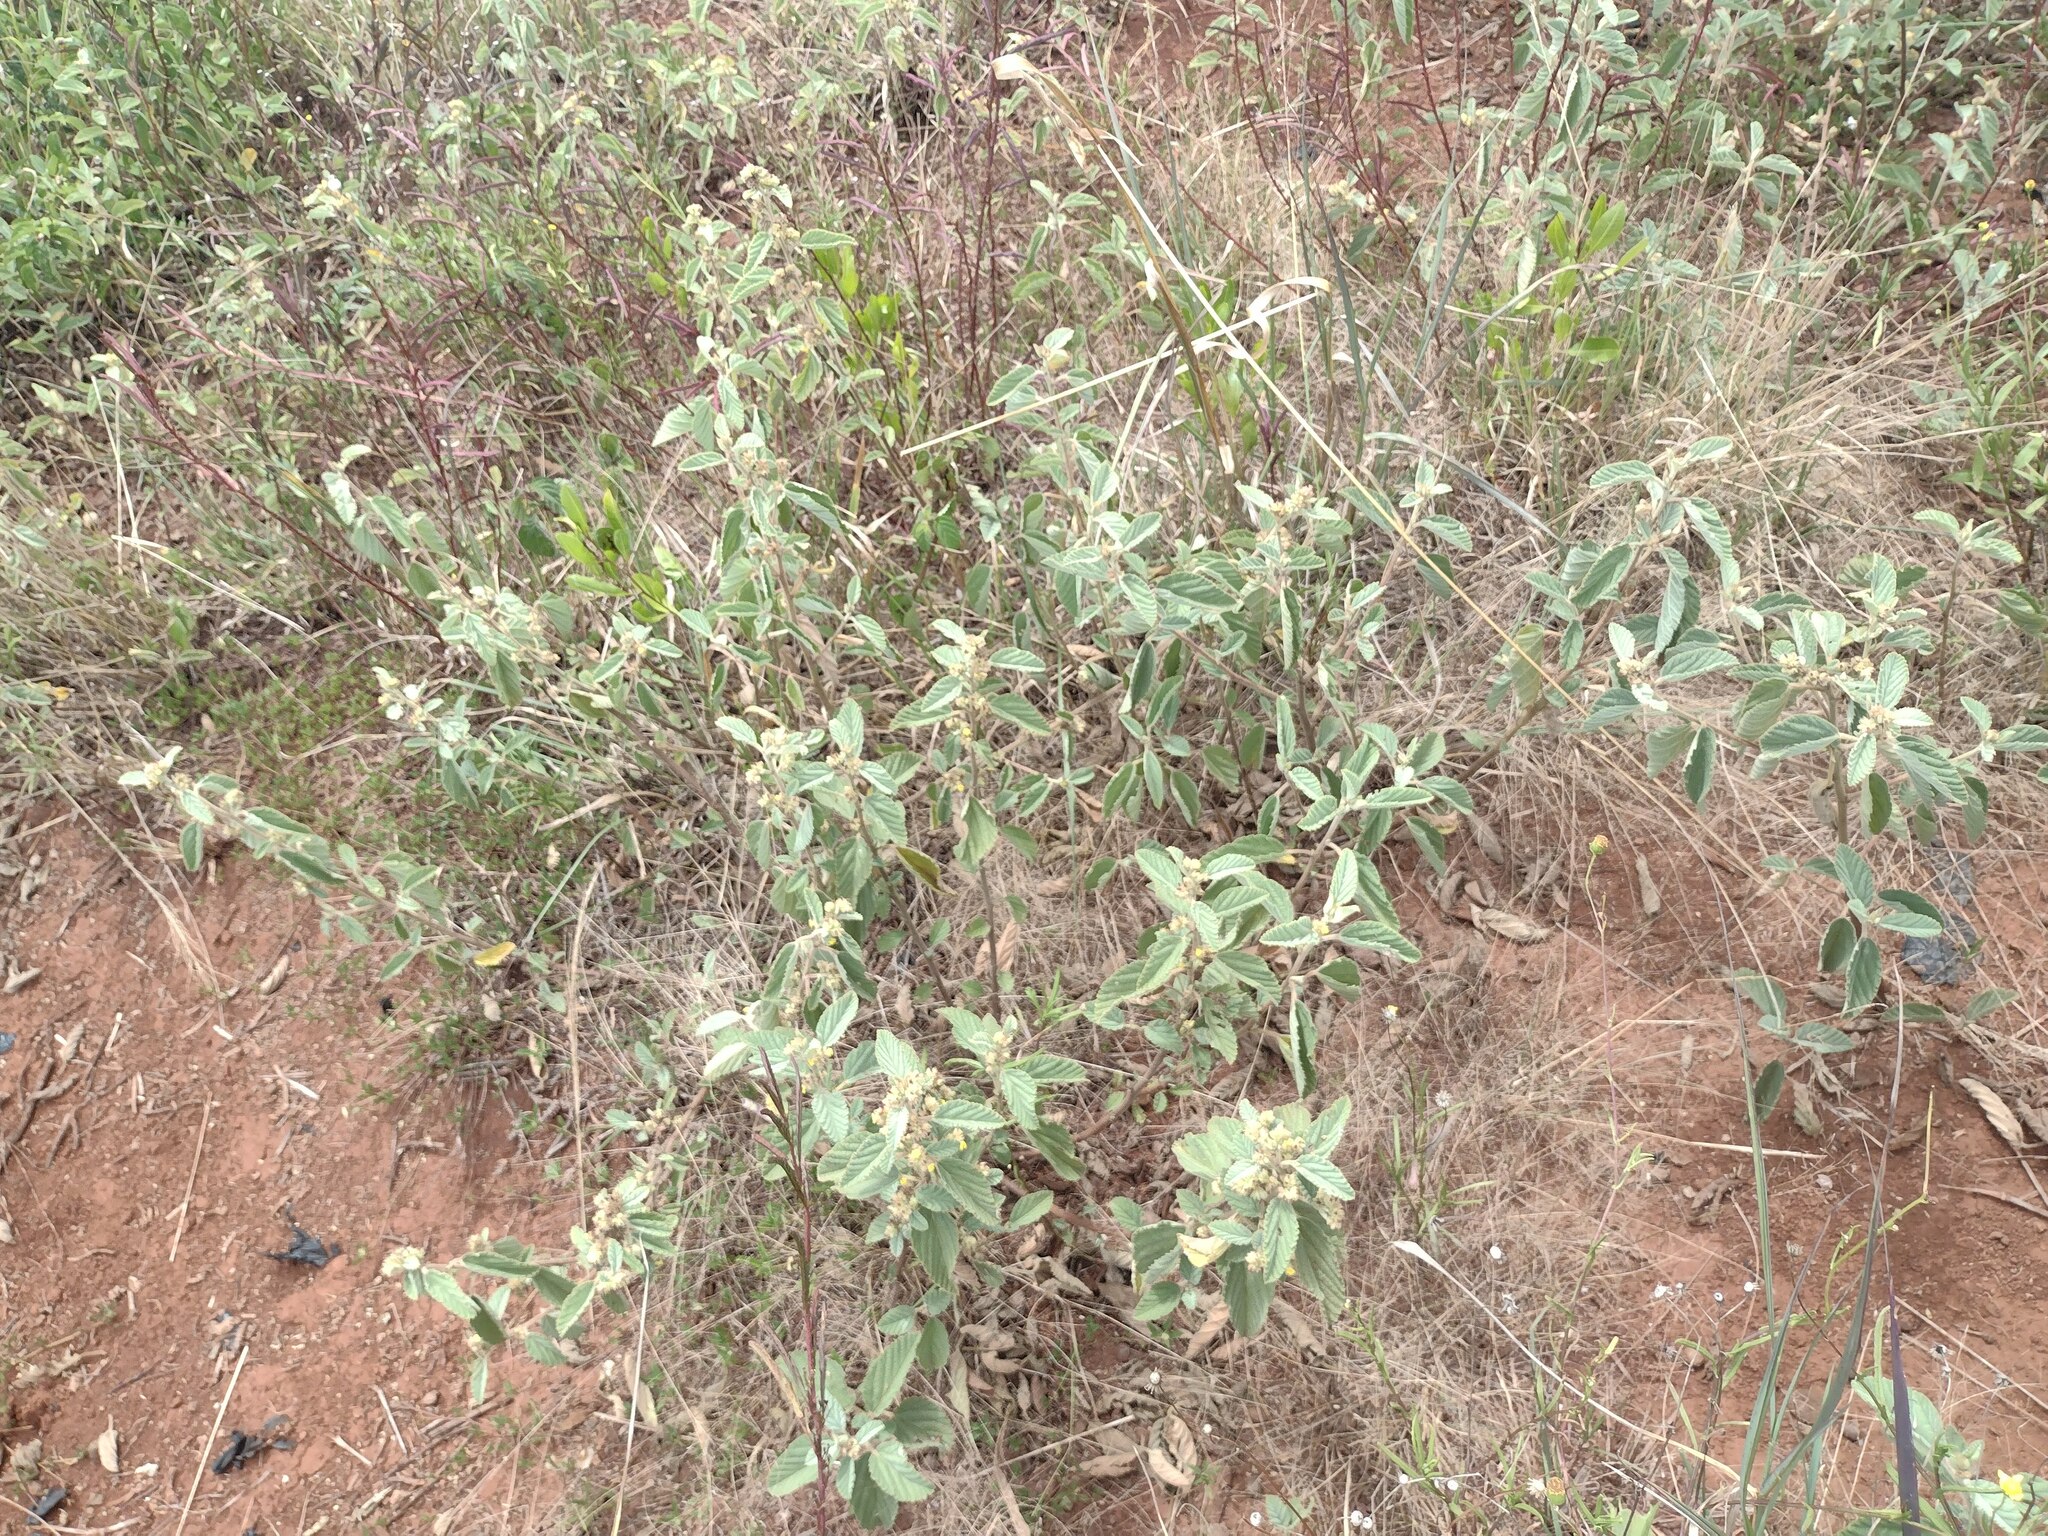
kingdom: Plantae
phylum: Tracheophyta
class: Magnoliopsida
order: Malvales
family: Malvaceae
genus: Waltheria
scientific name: Waltheria indica
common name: Leather-coat
